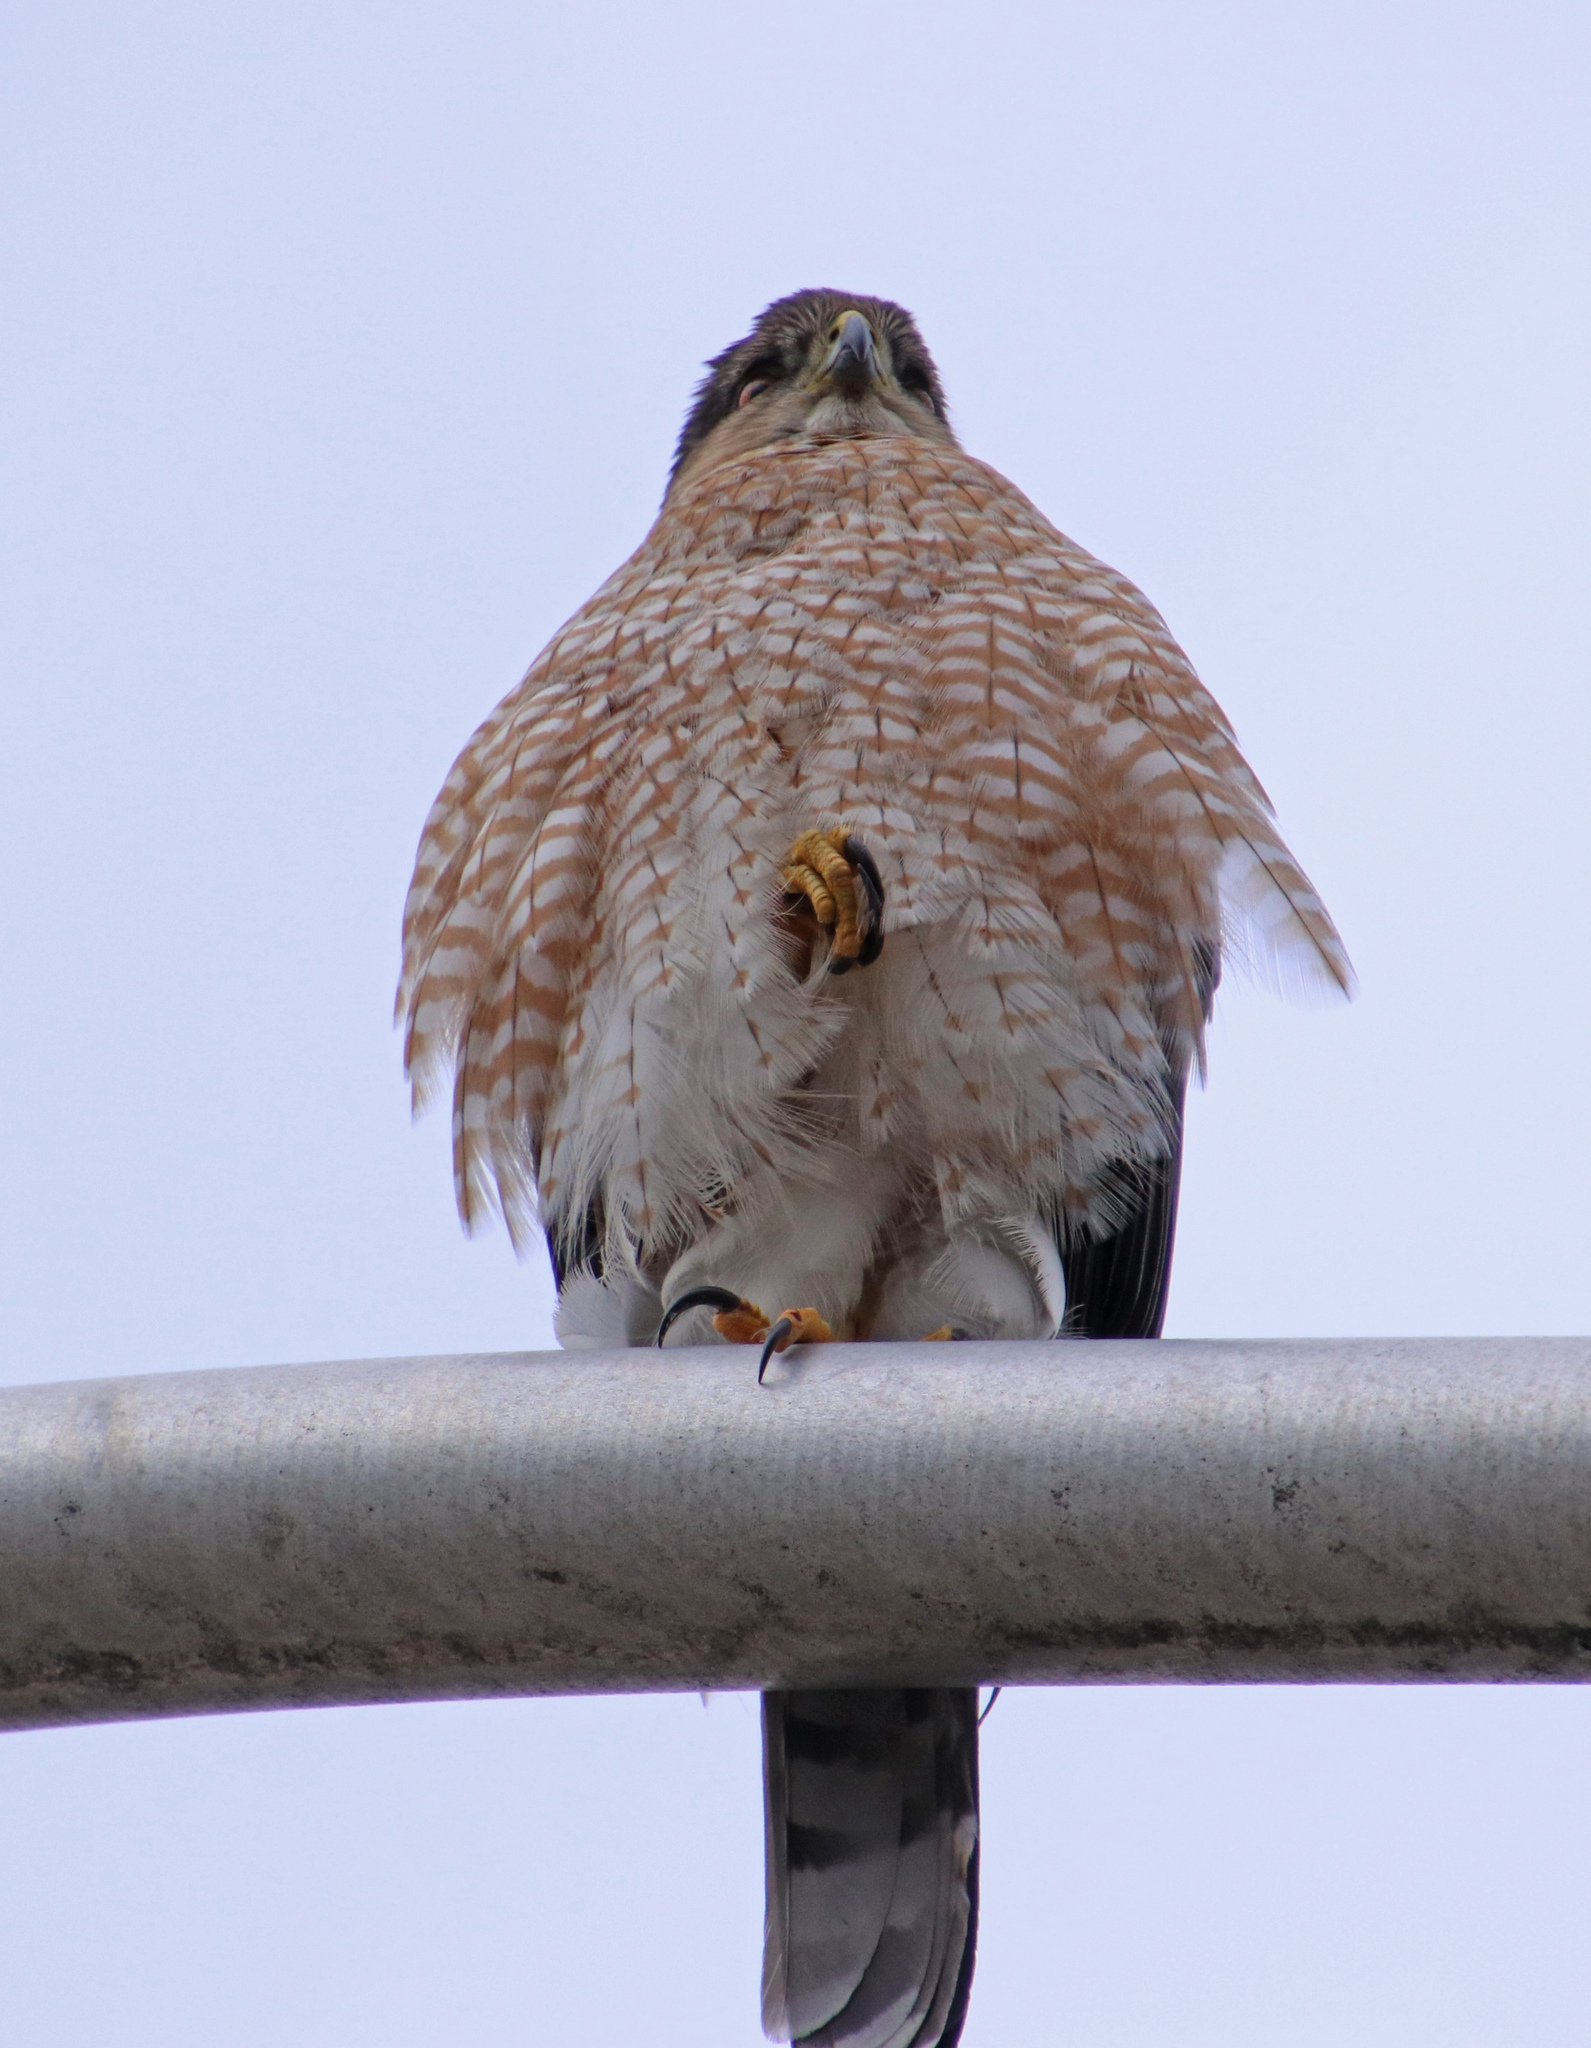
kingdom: Animalia
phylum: Chordata
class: Aves
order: Accipitriformes
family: Accipitridae
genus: Accipiter
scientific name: Accipiter cooperii
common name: Cooper's hawk
